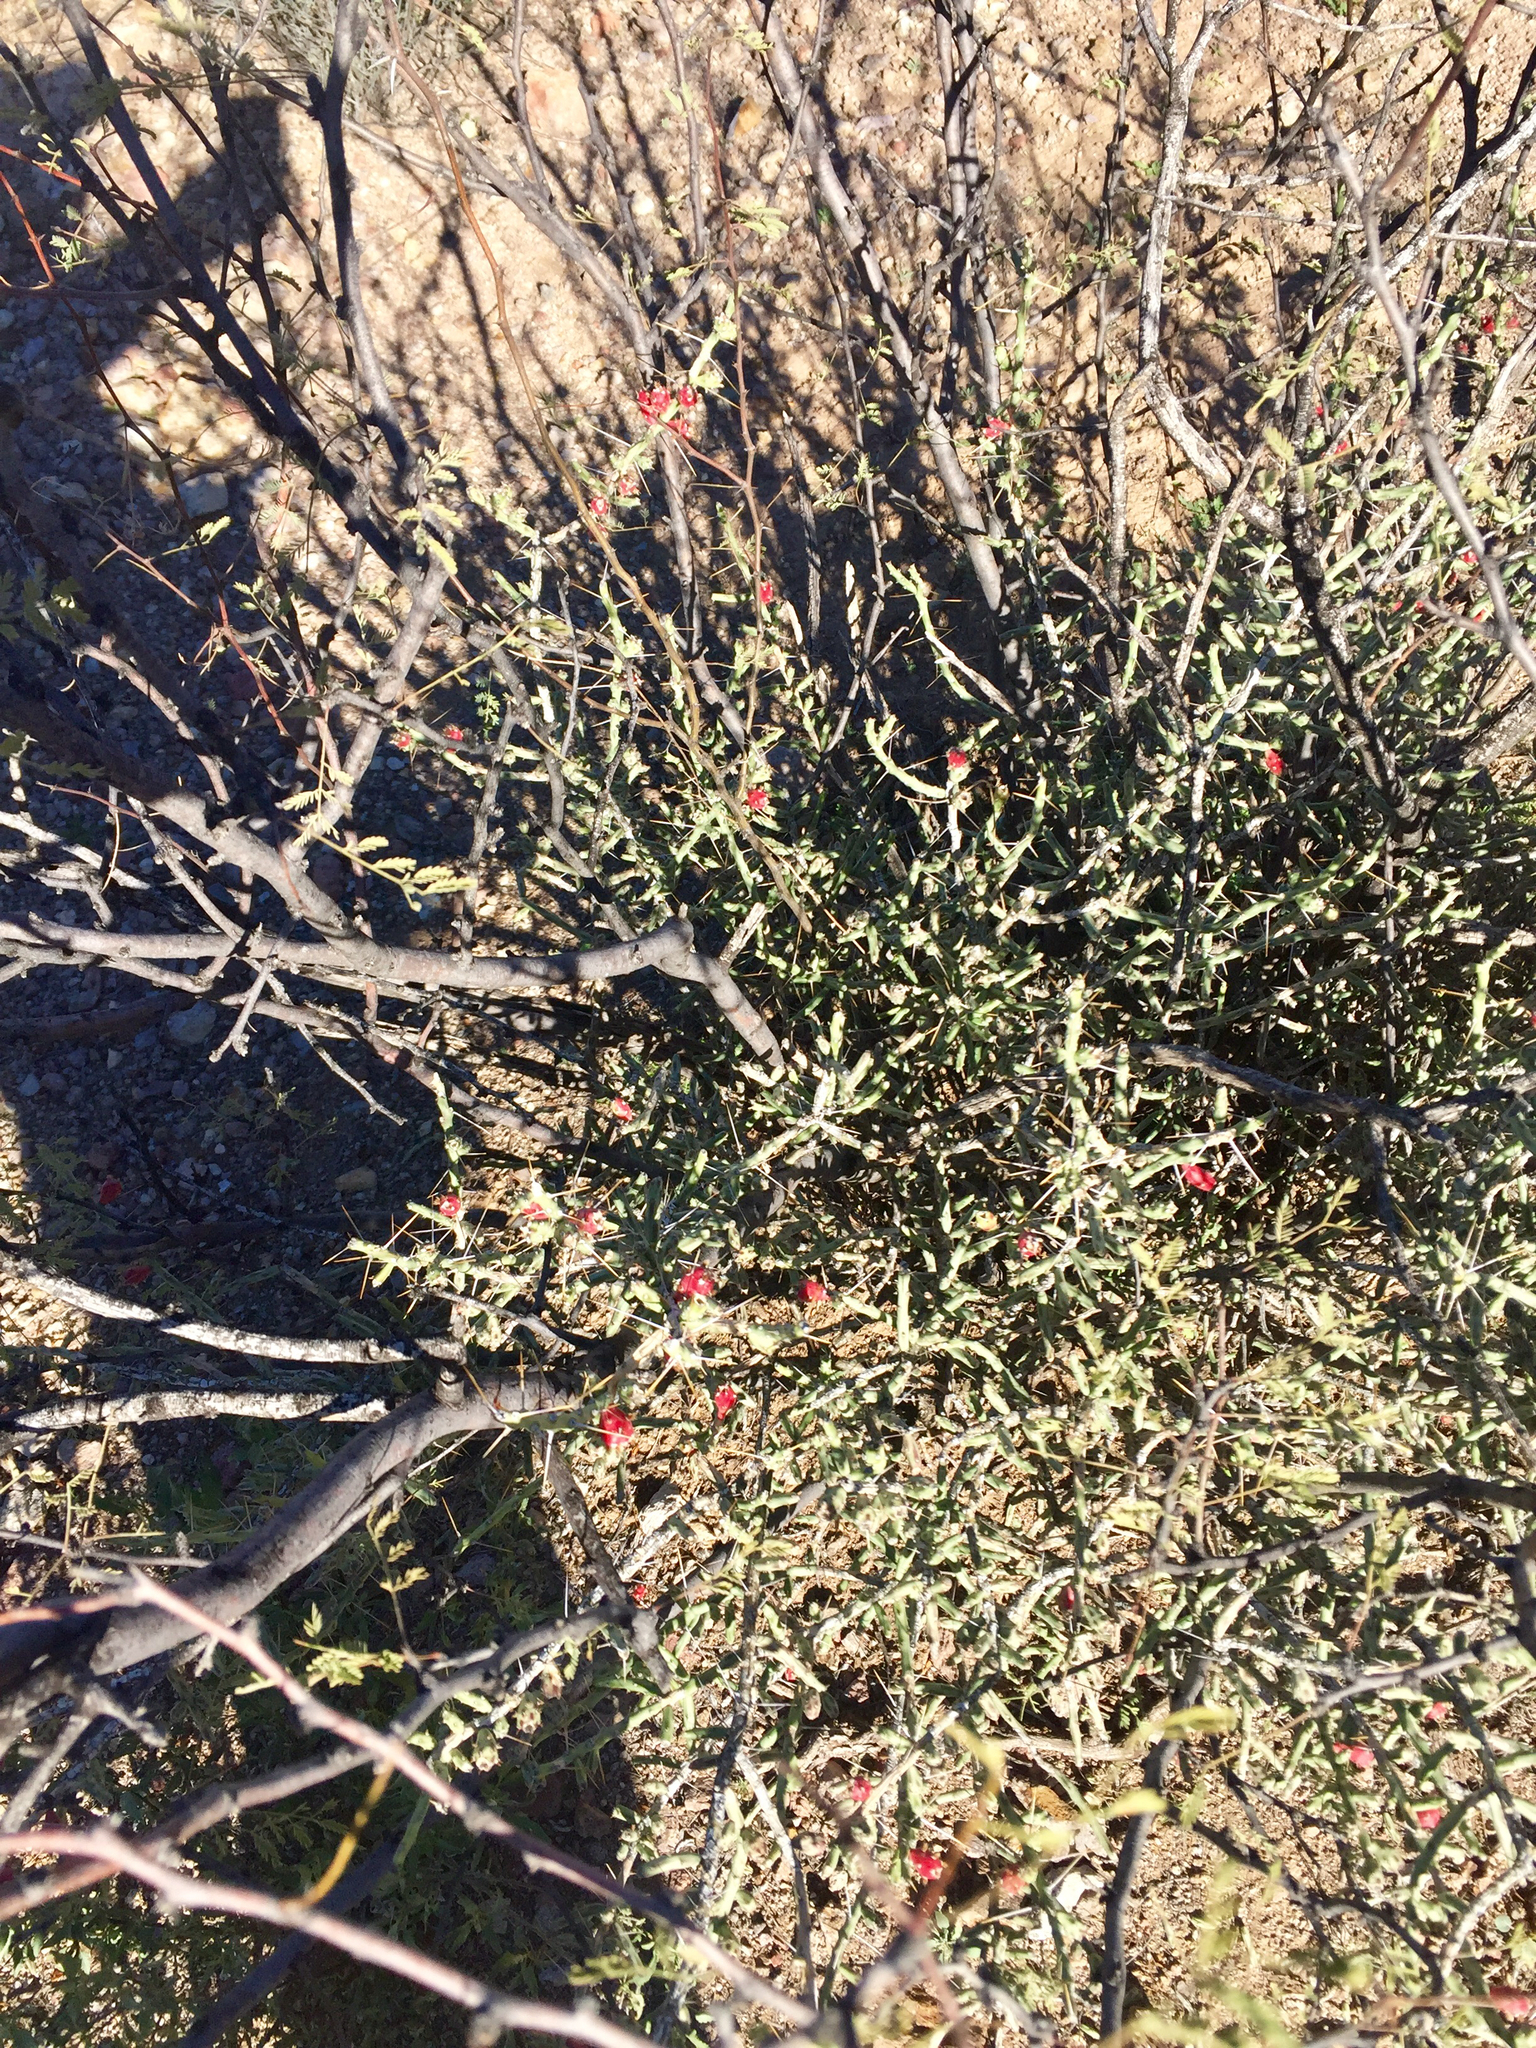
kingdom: Plantae
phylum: Tracheophyta
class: Magnoliopsida
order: Caryophyllales
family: Cactaceae
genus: Cylindropuntia
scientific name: Cylindropuntia leptocaulis
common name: Christmas cactus
